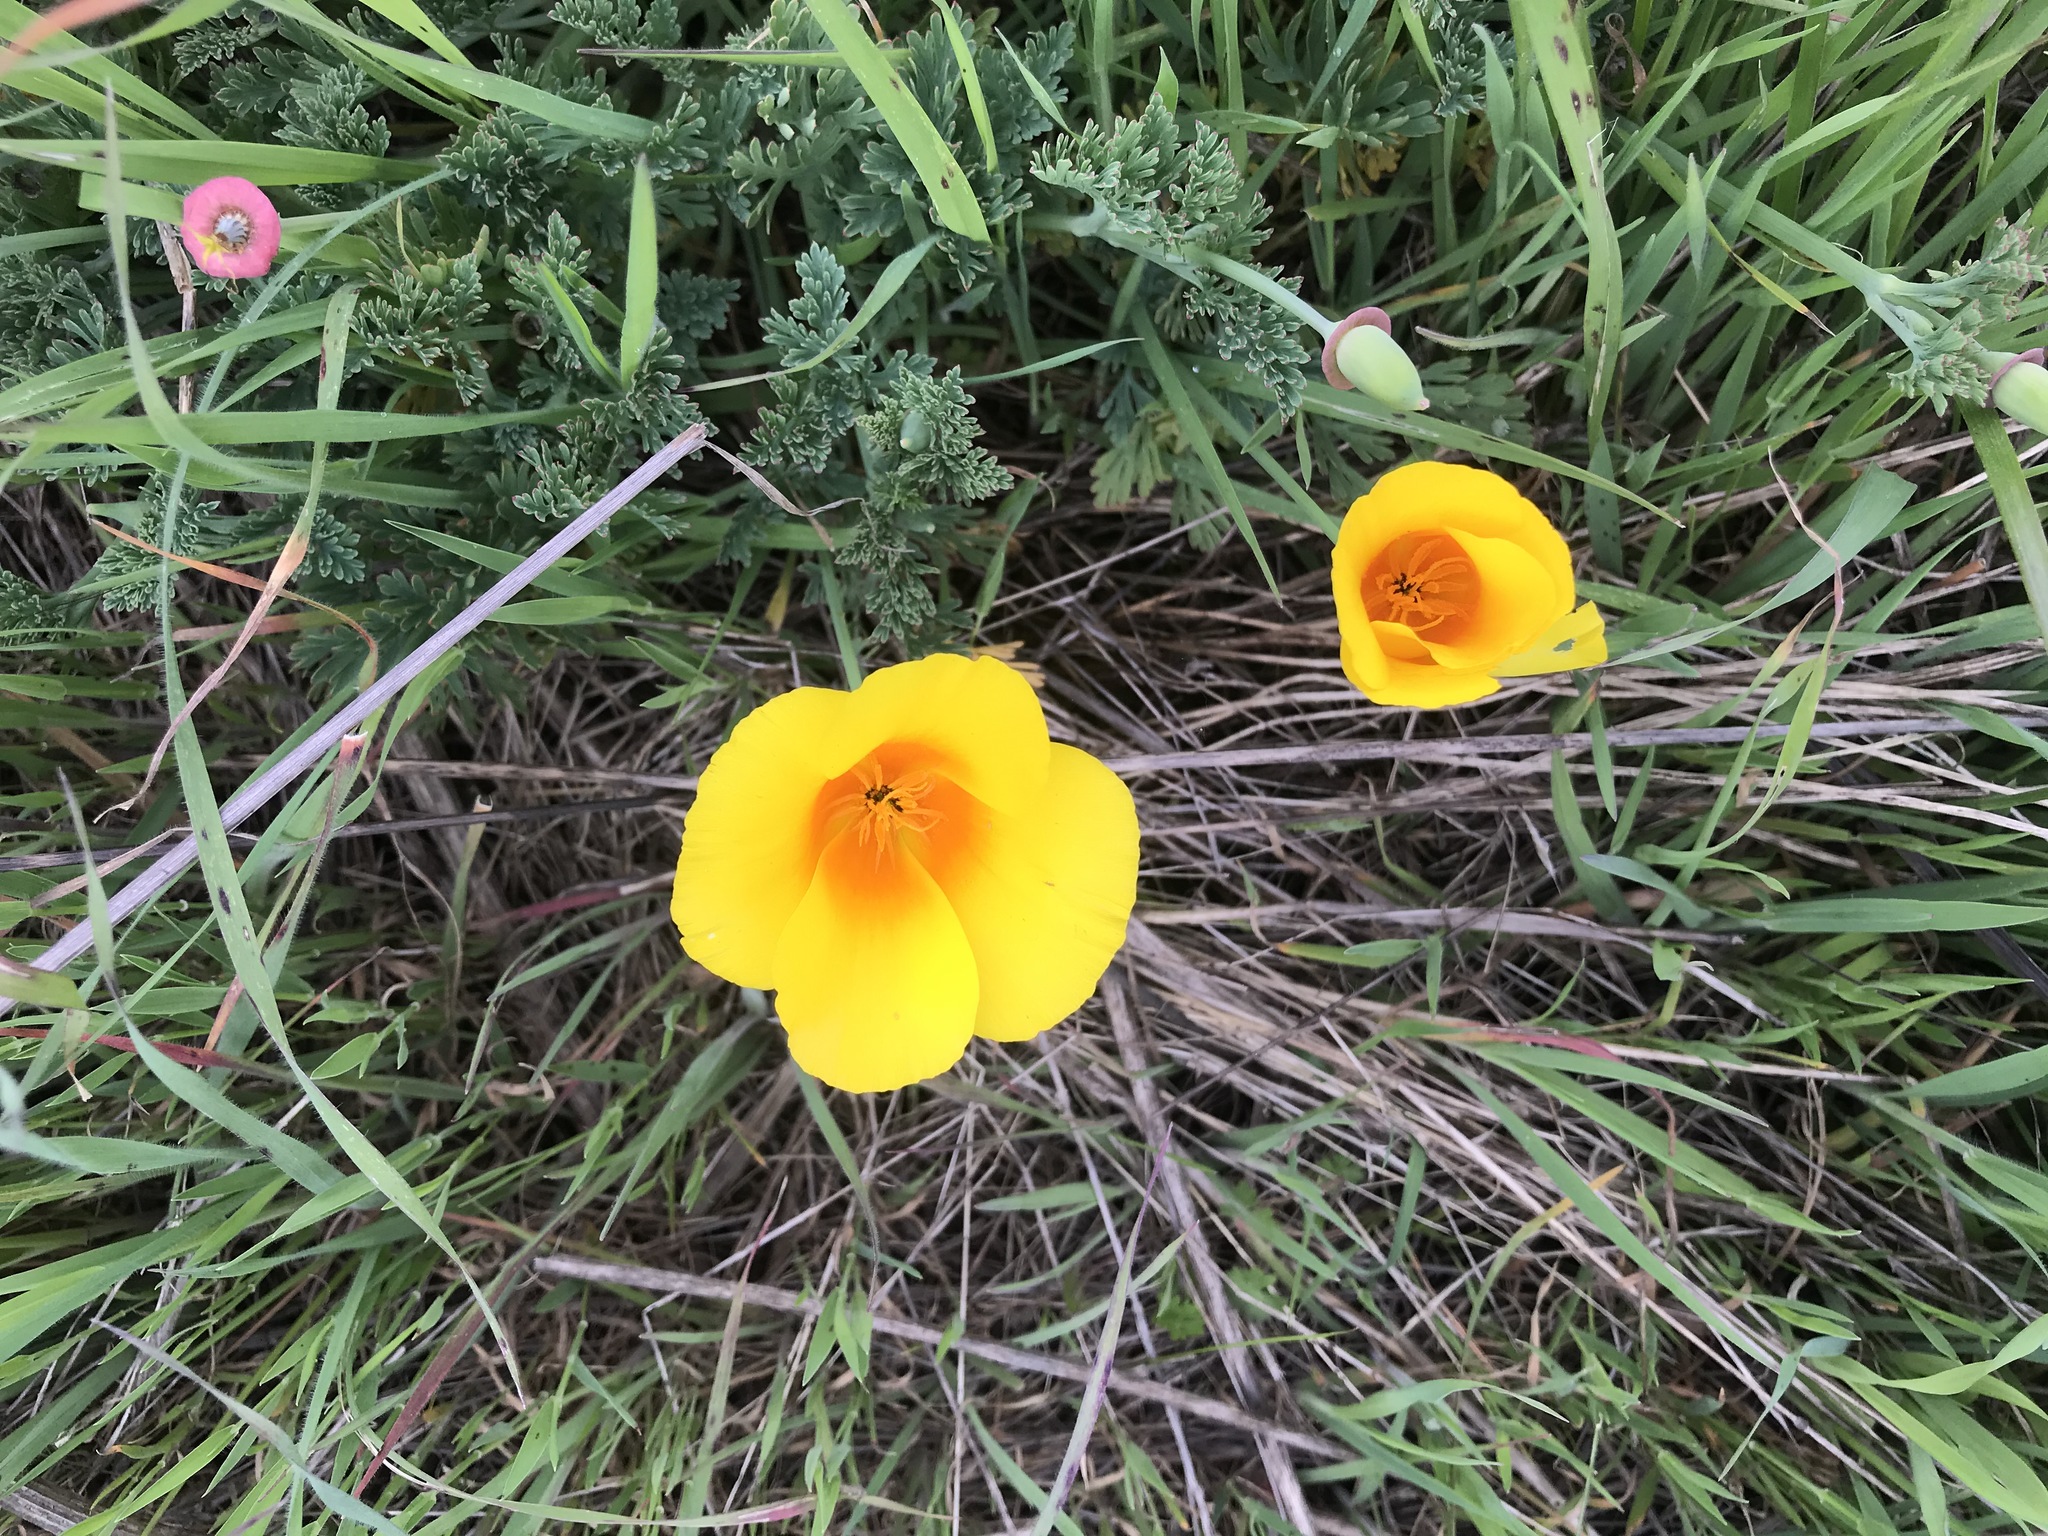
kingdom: Plantae
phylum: Tracheophyta
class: Magnoliopsida
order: Ranunculales
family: Papaveraceae
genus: Eschscholzia
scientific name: Eschscholzia californica
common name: California poppy
